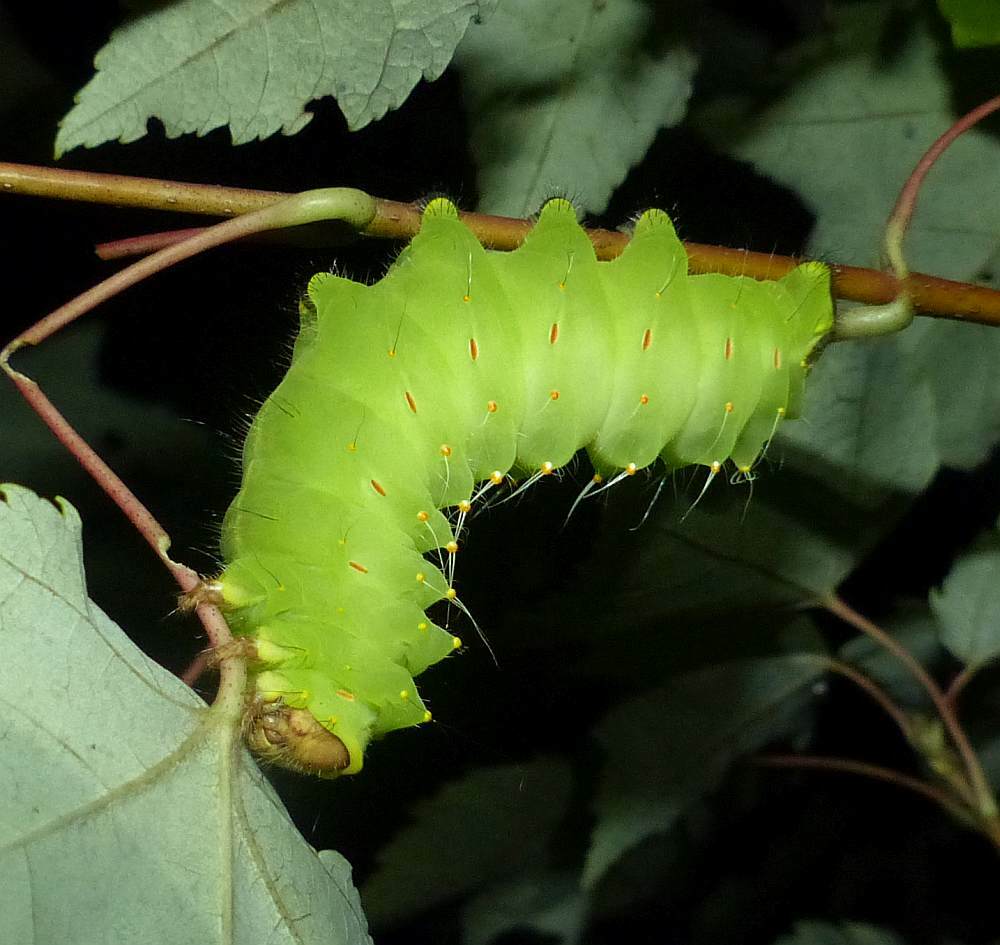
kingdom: Animalia
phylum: Arthropoda
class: Insecta
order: Lepidoptera
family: Saturniidae
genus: Antheraea
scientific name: Antheraea polyphemus
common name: Polyphemus moth
